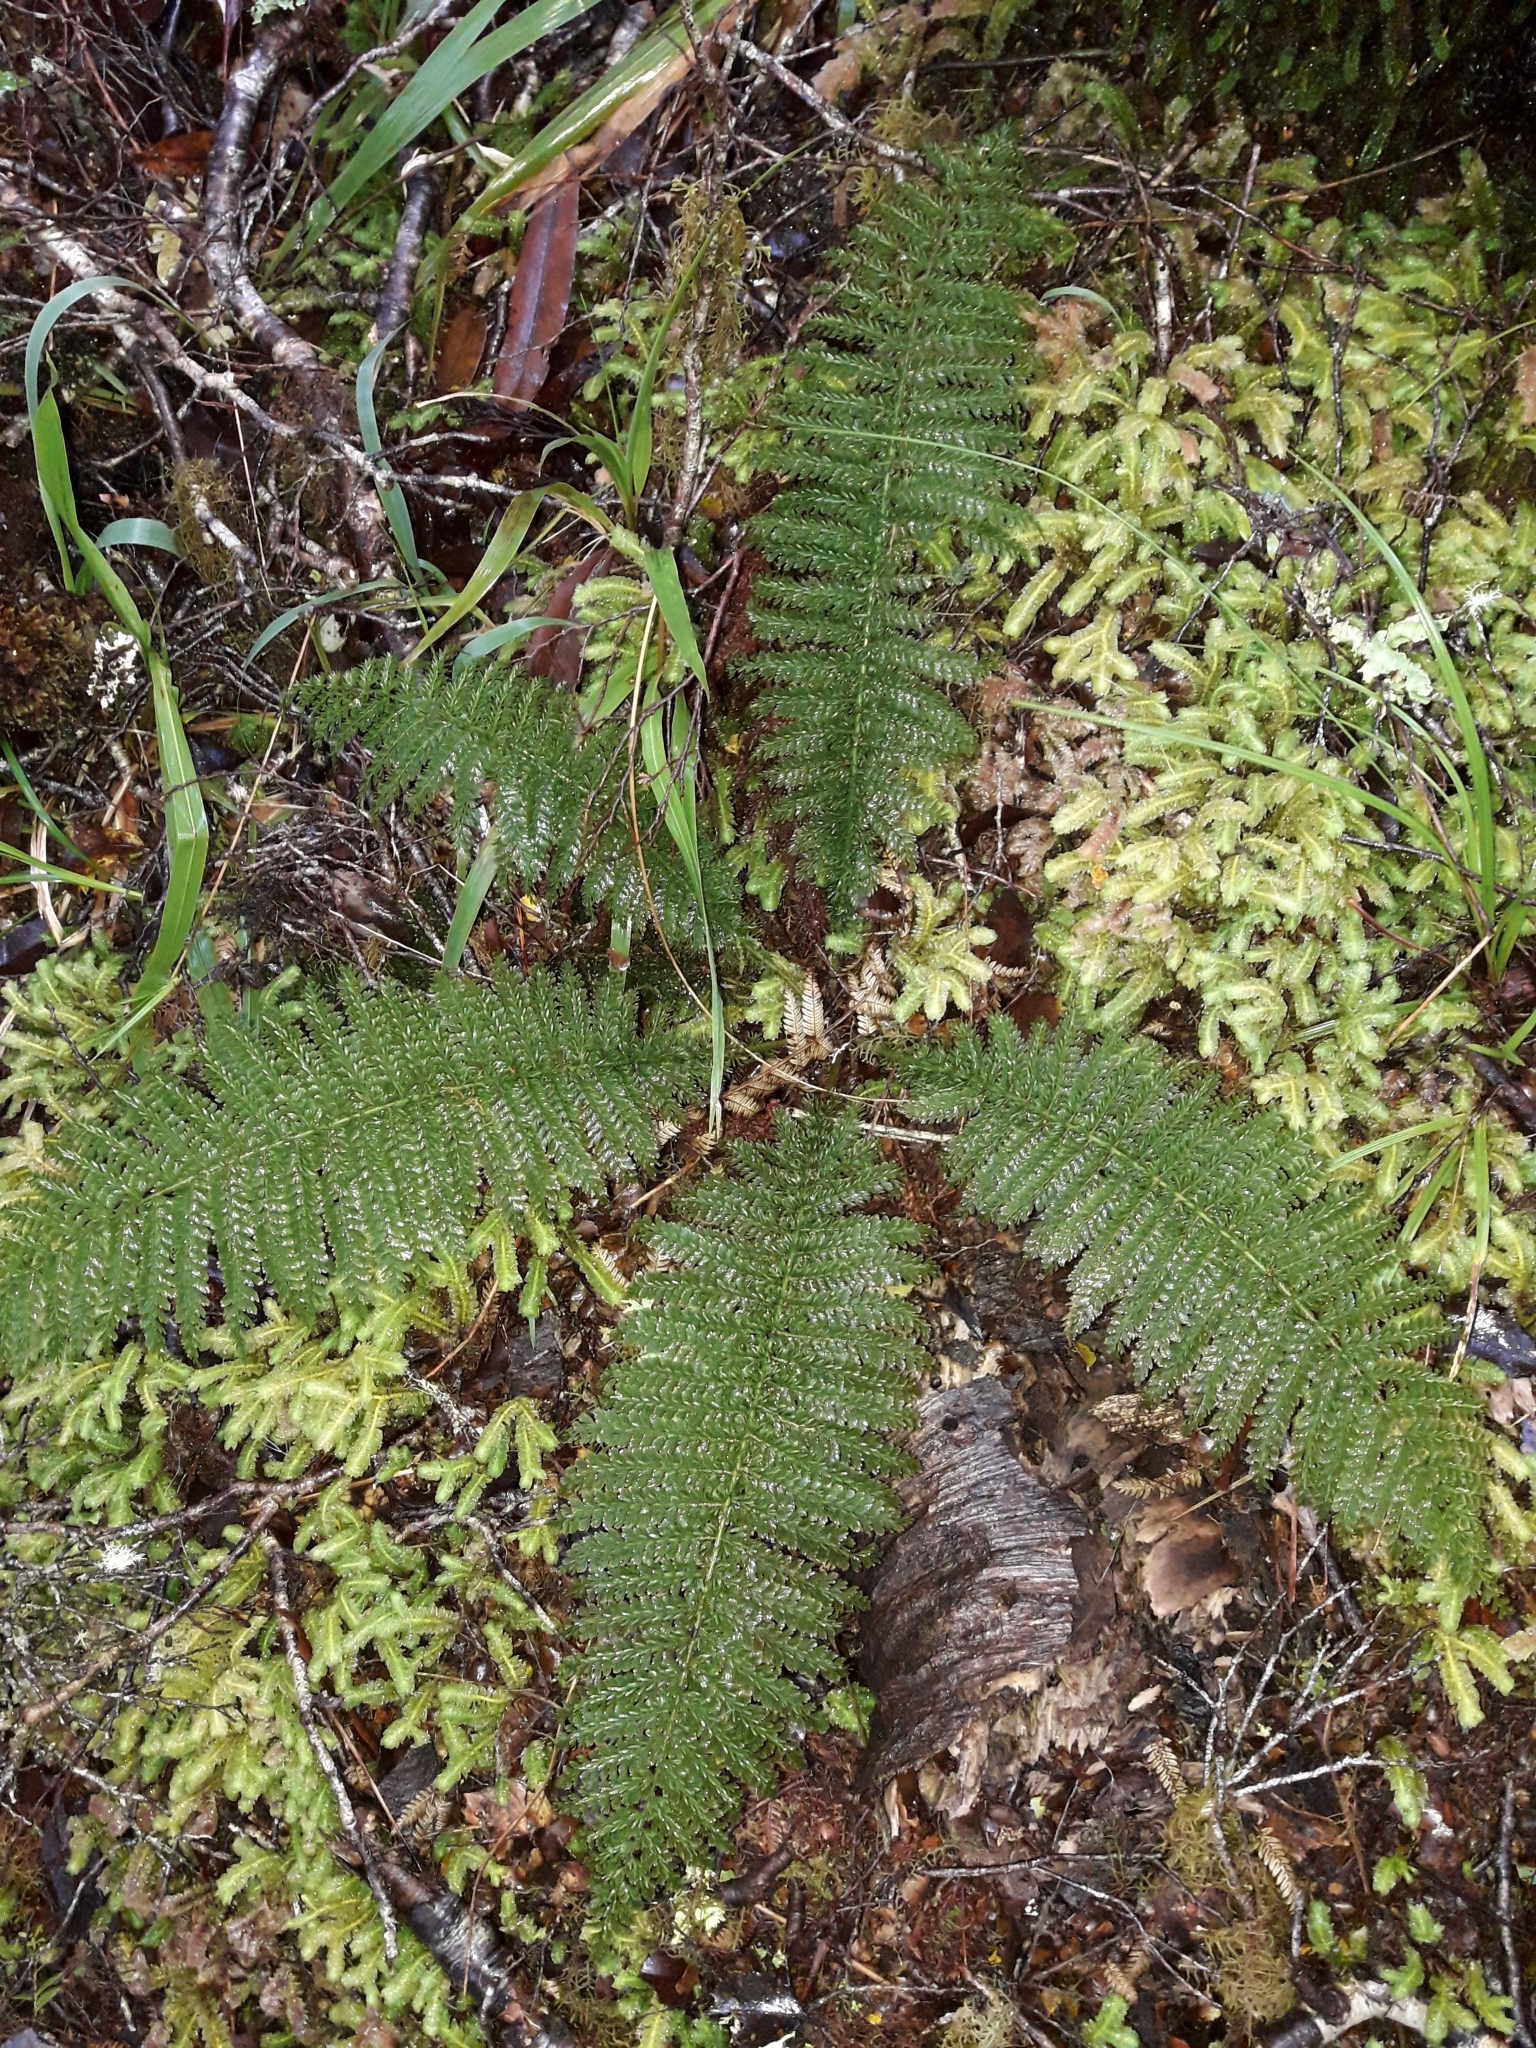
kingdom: Plantae
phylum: Tracheophyta
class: Polypodiopsida
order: Osmundales
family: Osmundaceae
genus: Leptopteris
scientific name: Leptopteris superba
